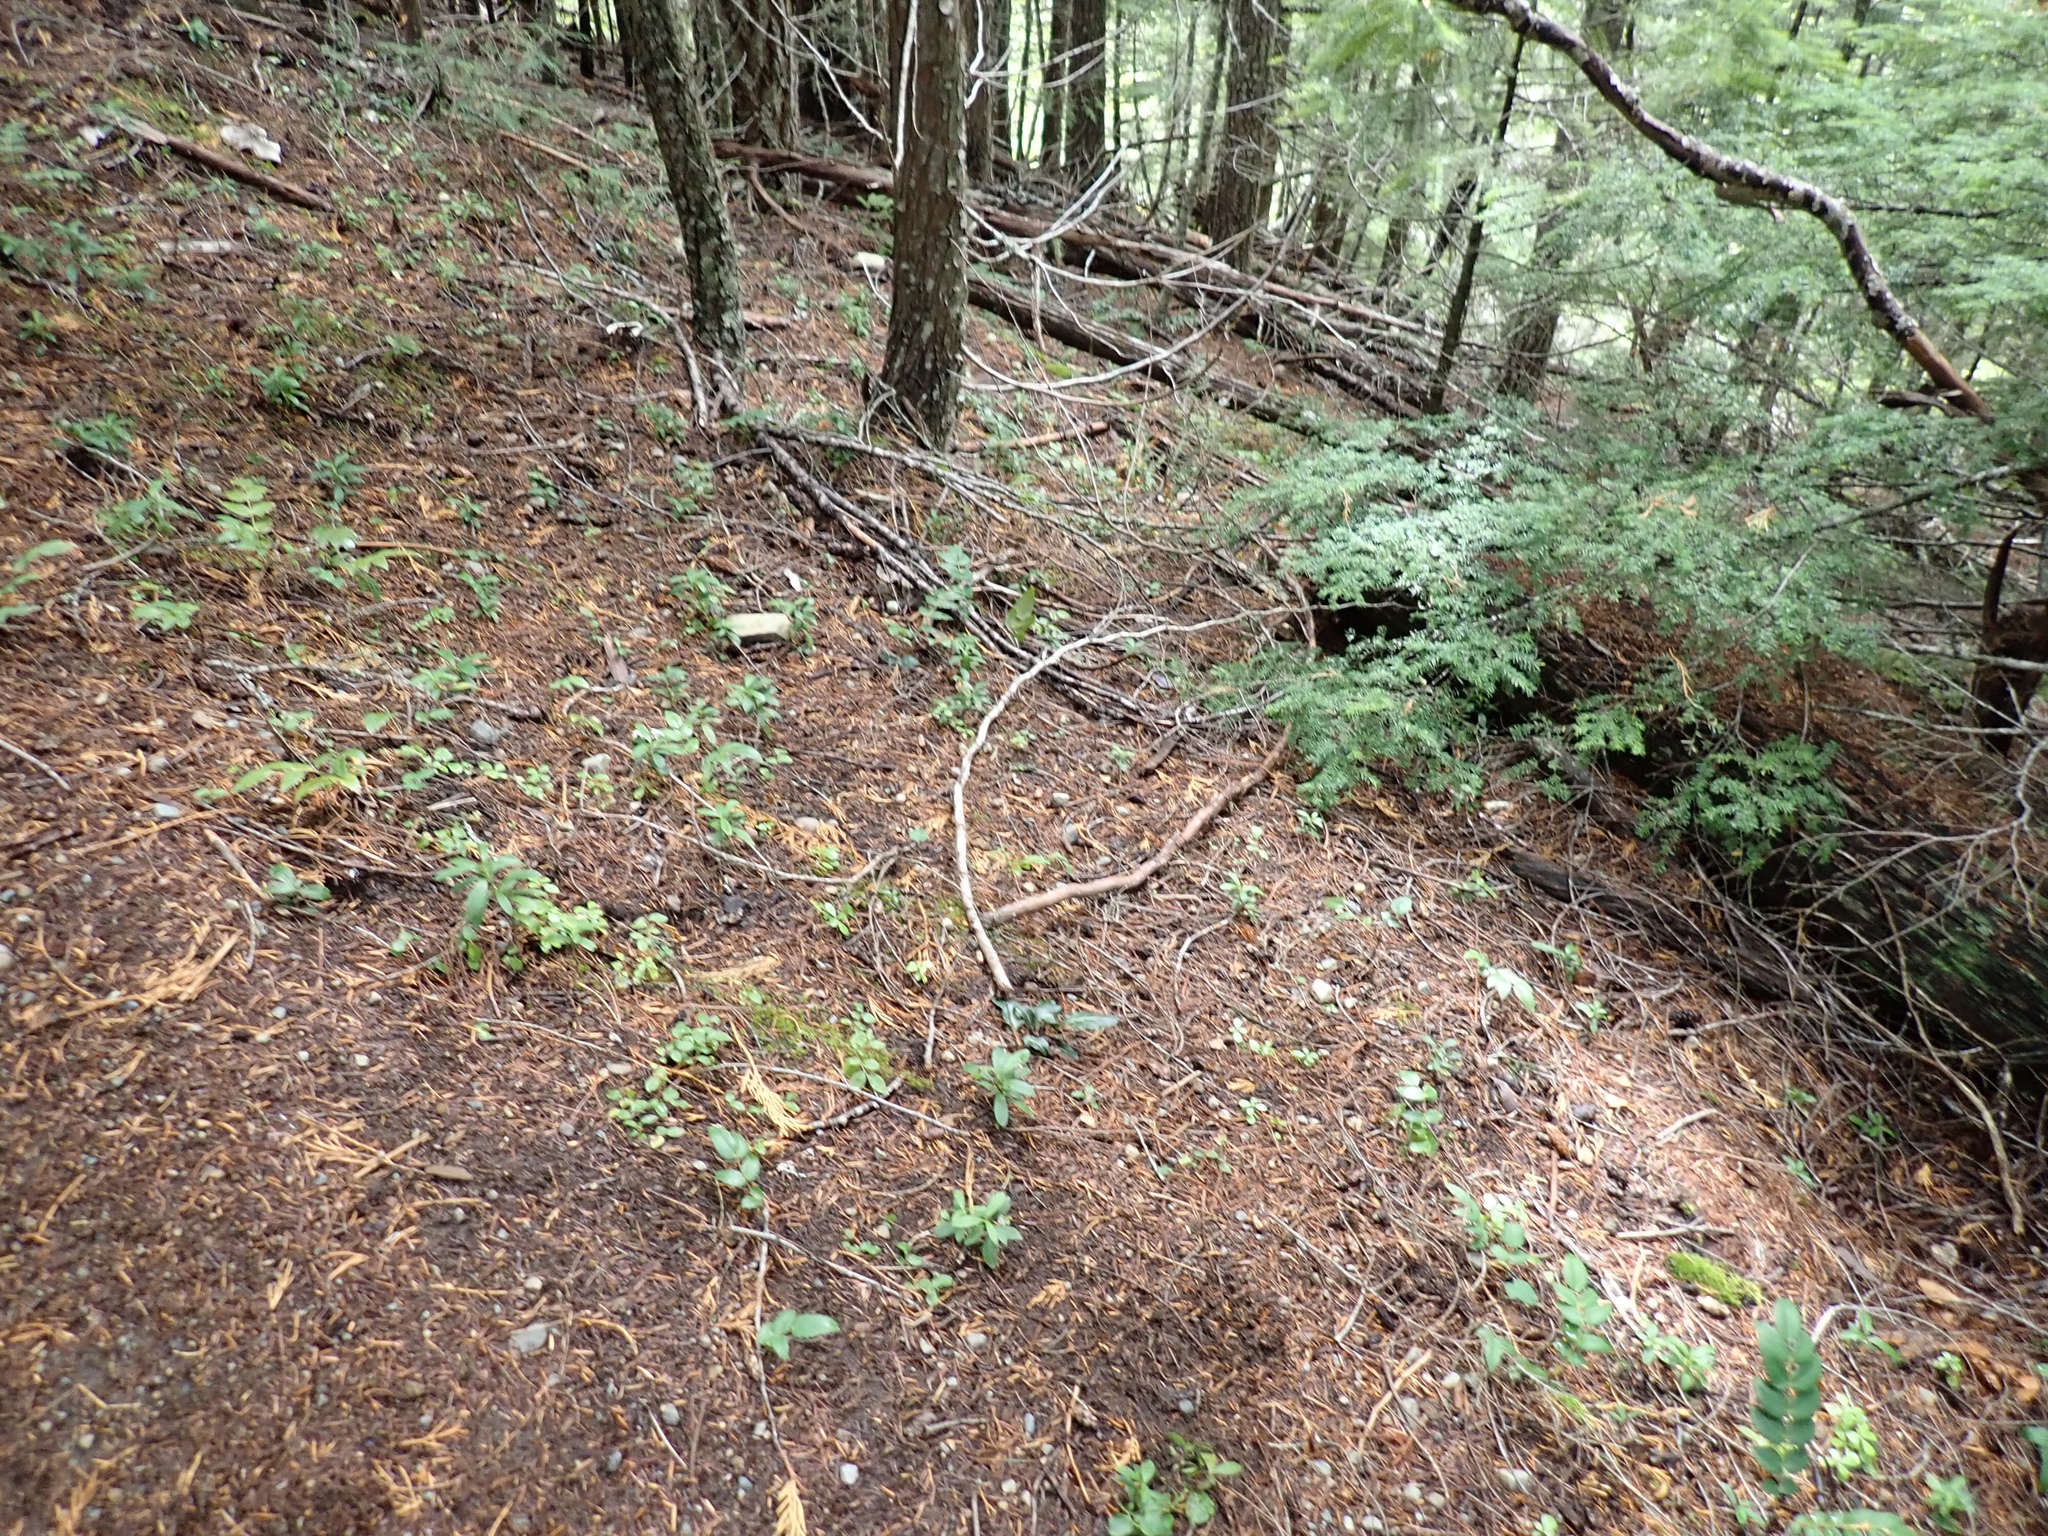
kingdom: Plantae
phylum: Tracheophyta
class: Magnoliopsida
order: Ericales
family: Ericaceae
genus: Pyrola
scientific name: Pyrola picta
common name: White-vein wintergreen
